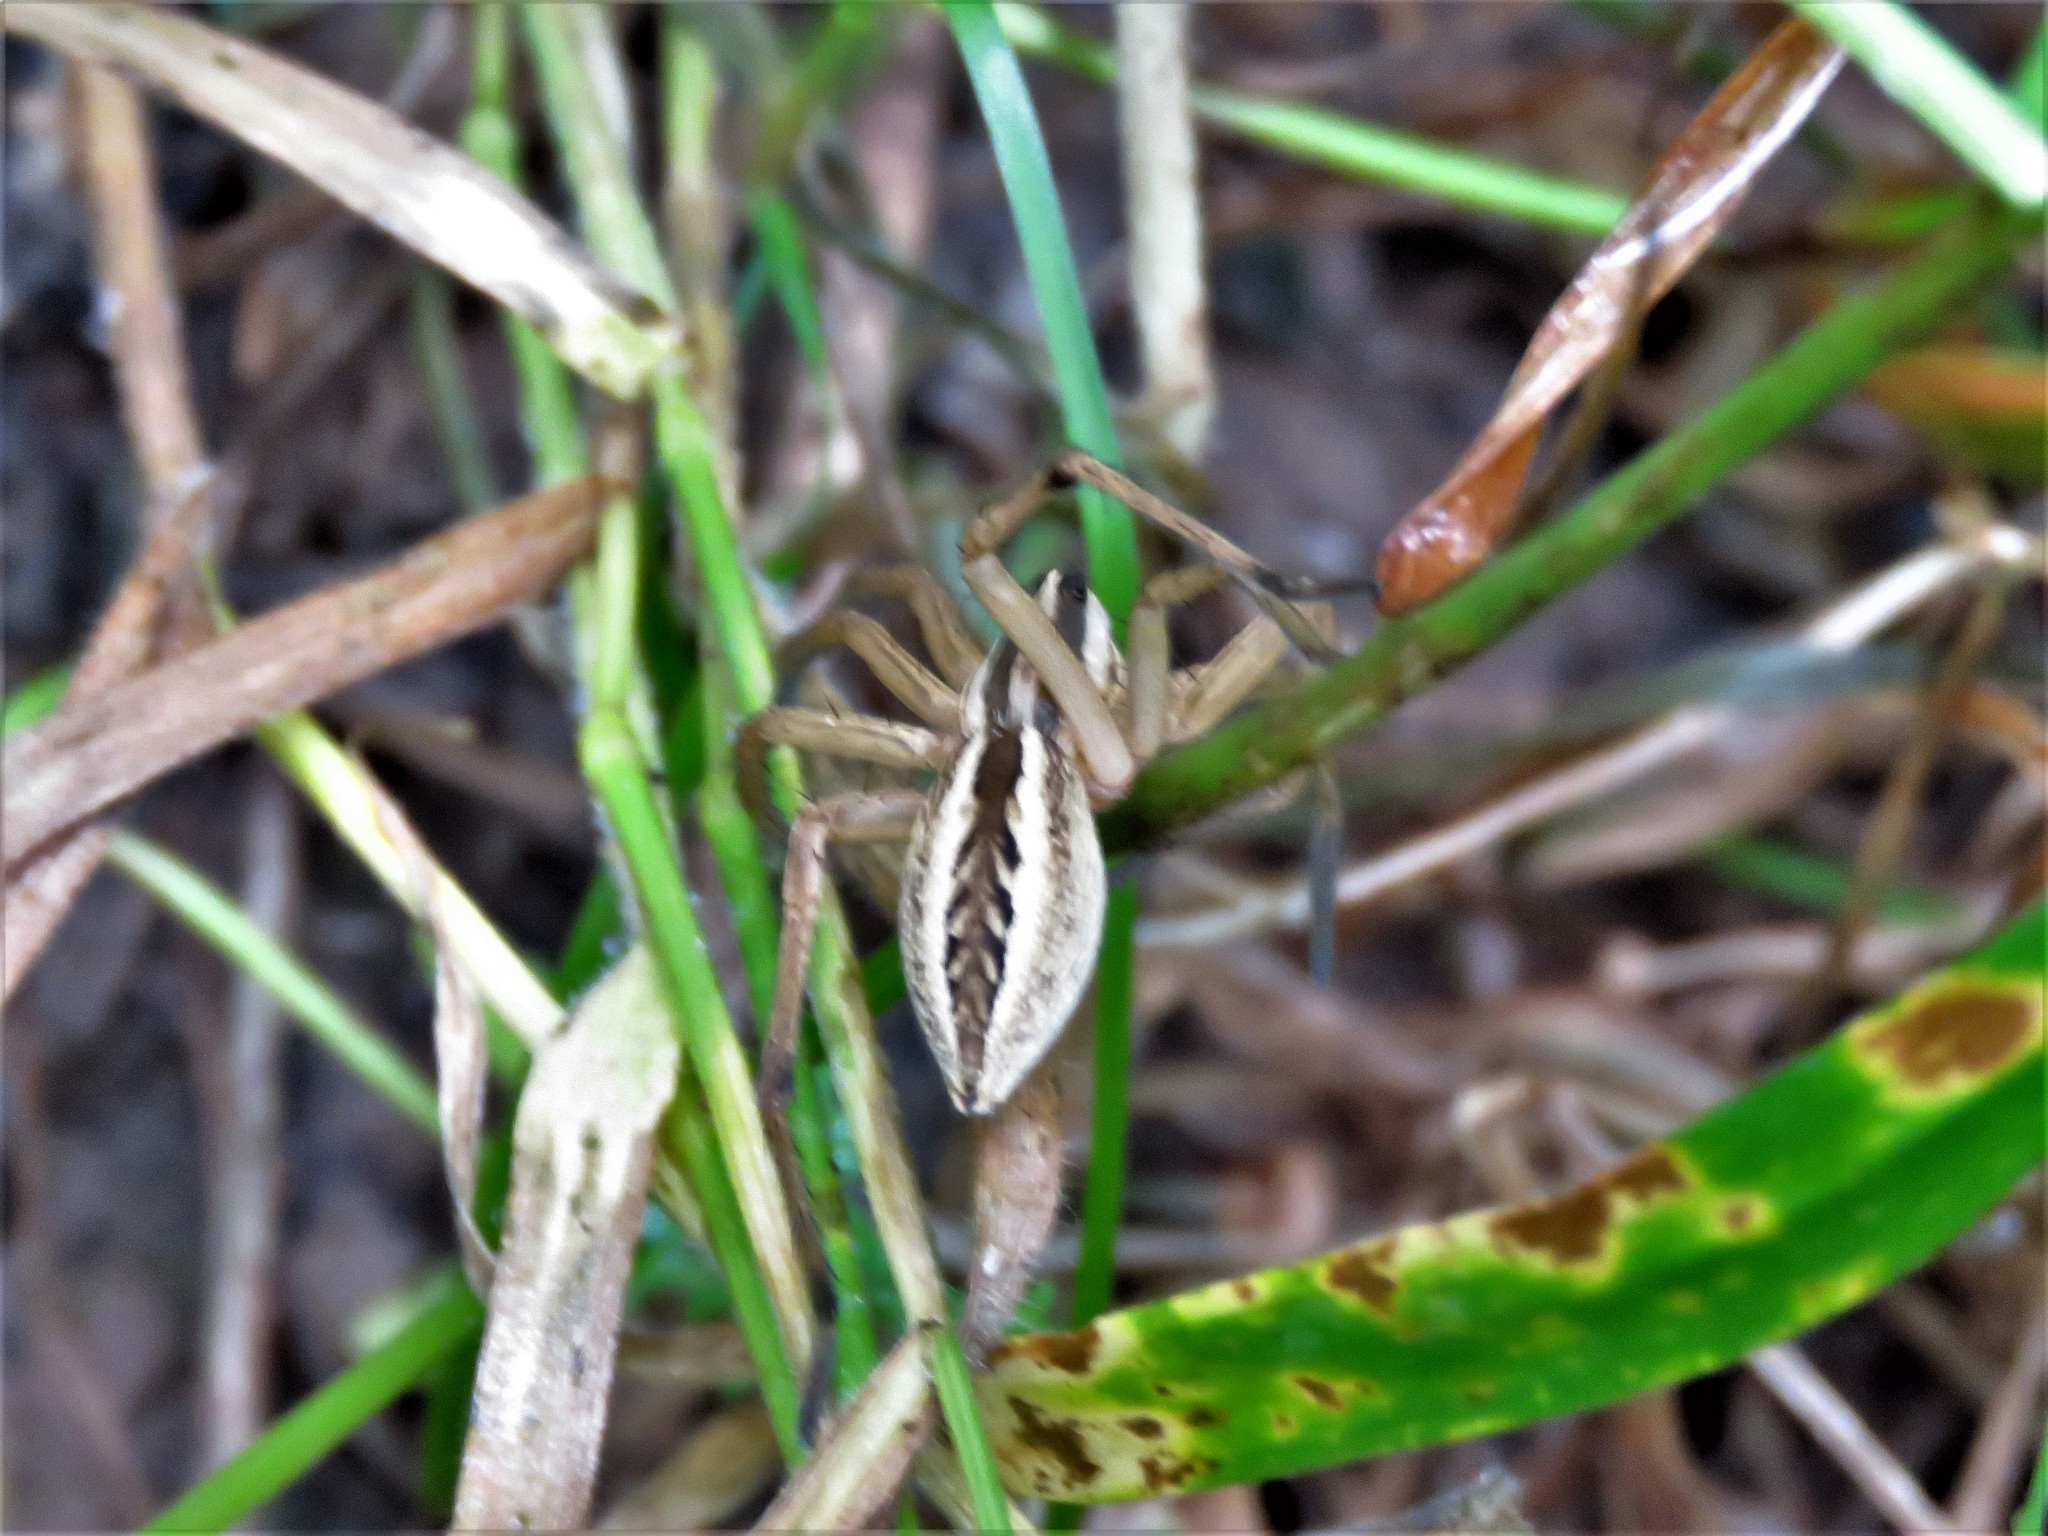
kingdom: Animalia
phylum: Arthropoda
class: Arachnida
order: Araneae
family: Lycosidae
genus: Rabidosa
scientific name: Rabidosa rabida
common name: Rabid wolf spider
